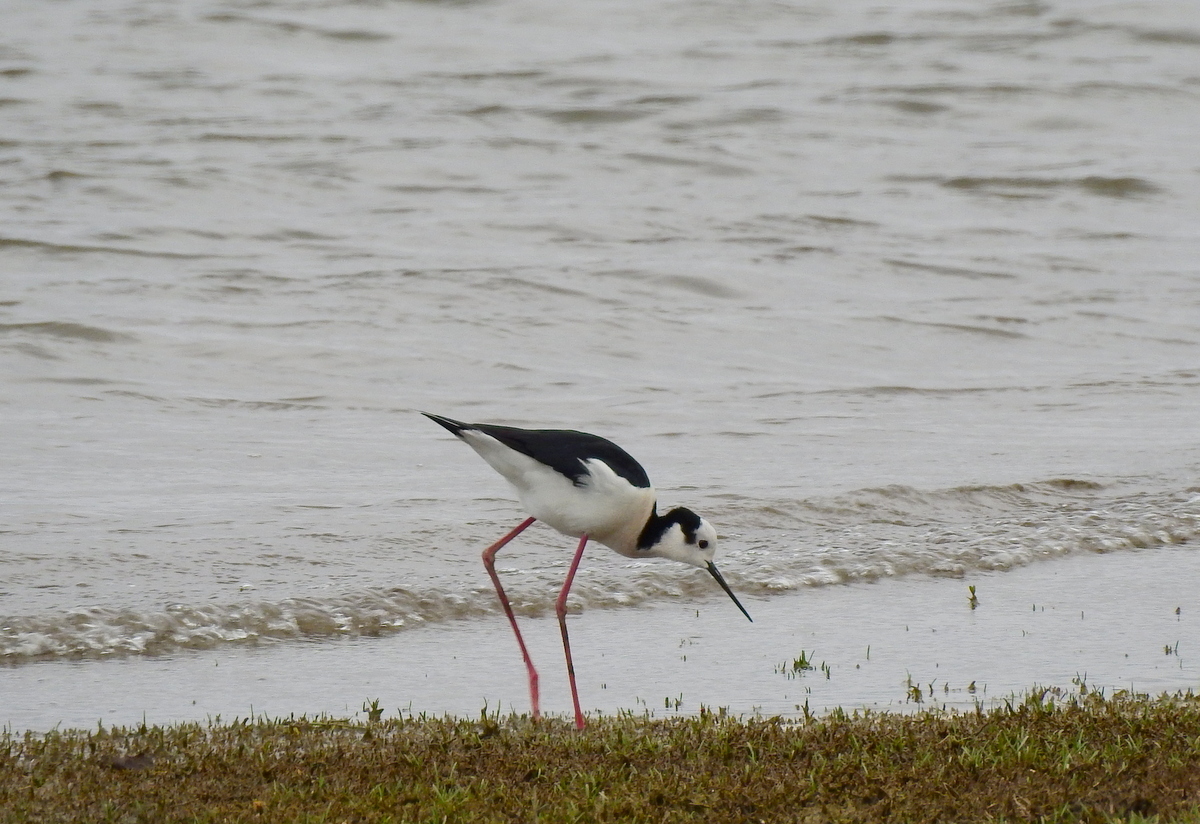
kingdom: Animalia
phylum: Chordata
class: Aves
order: Charadriiformes
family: Recurvirostridae
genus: Himantopus
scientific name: Himantopus mexicanus
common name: Black-necked stilt
